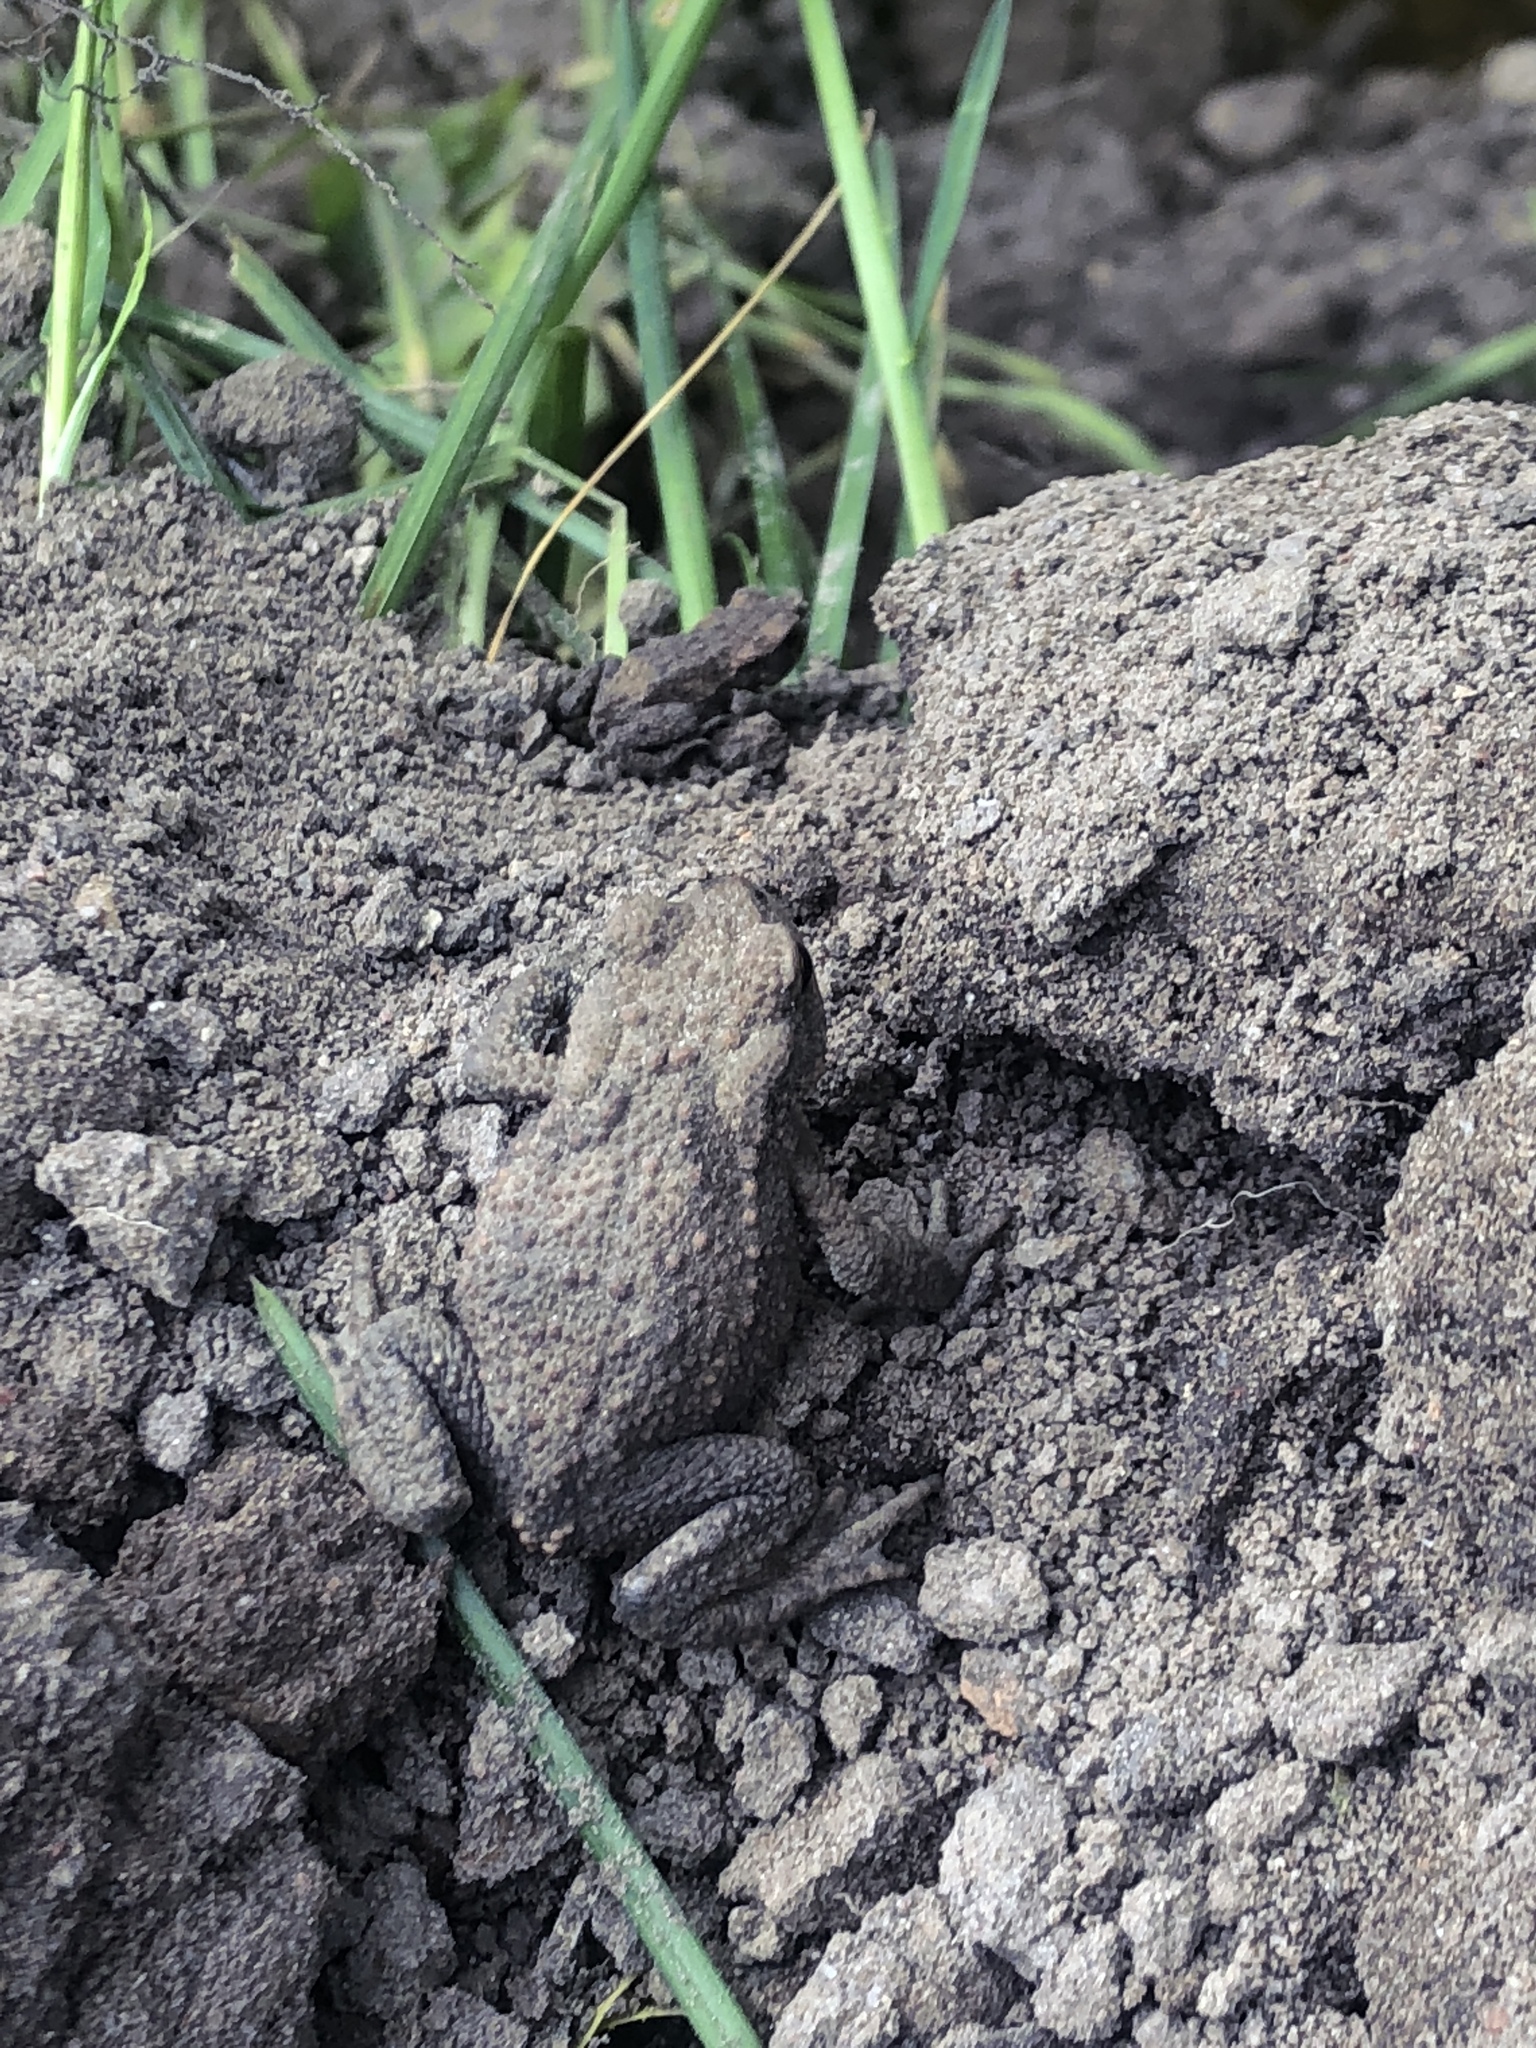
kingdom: Animalia
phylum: Chordata
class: Amphibia
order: Anura
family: Bufonidae
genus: Bufo
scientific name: Bufo bufo
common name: Common toad
